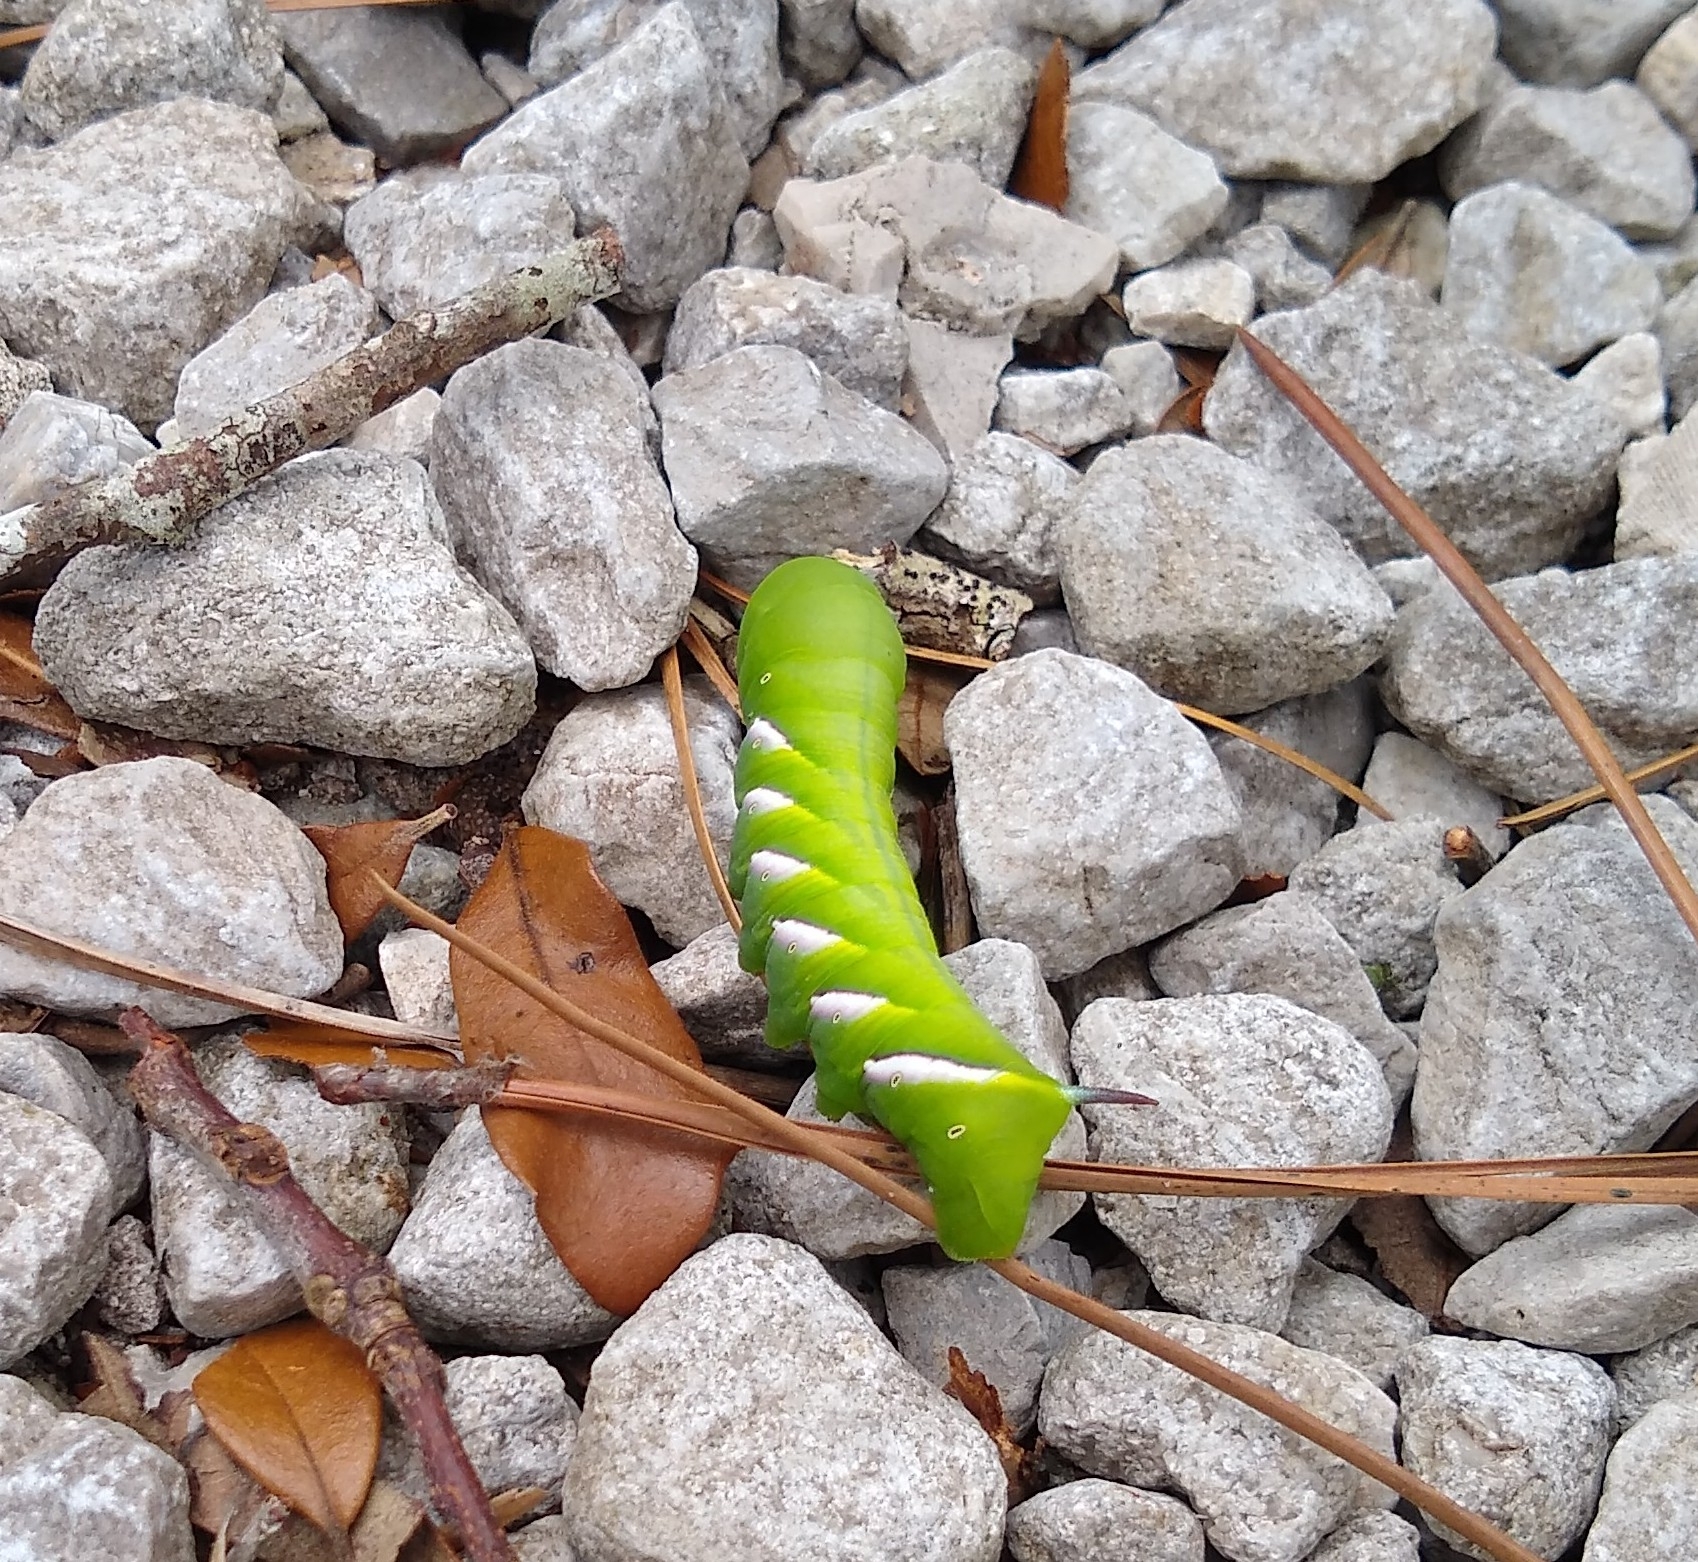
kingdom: Animalia
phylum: Arthropoda
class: Insecta
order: Lepidoptera
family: Sphingidae
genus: Dolba
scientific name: Dolba hyloeus
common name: Pawpaw sphinx
